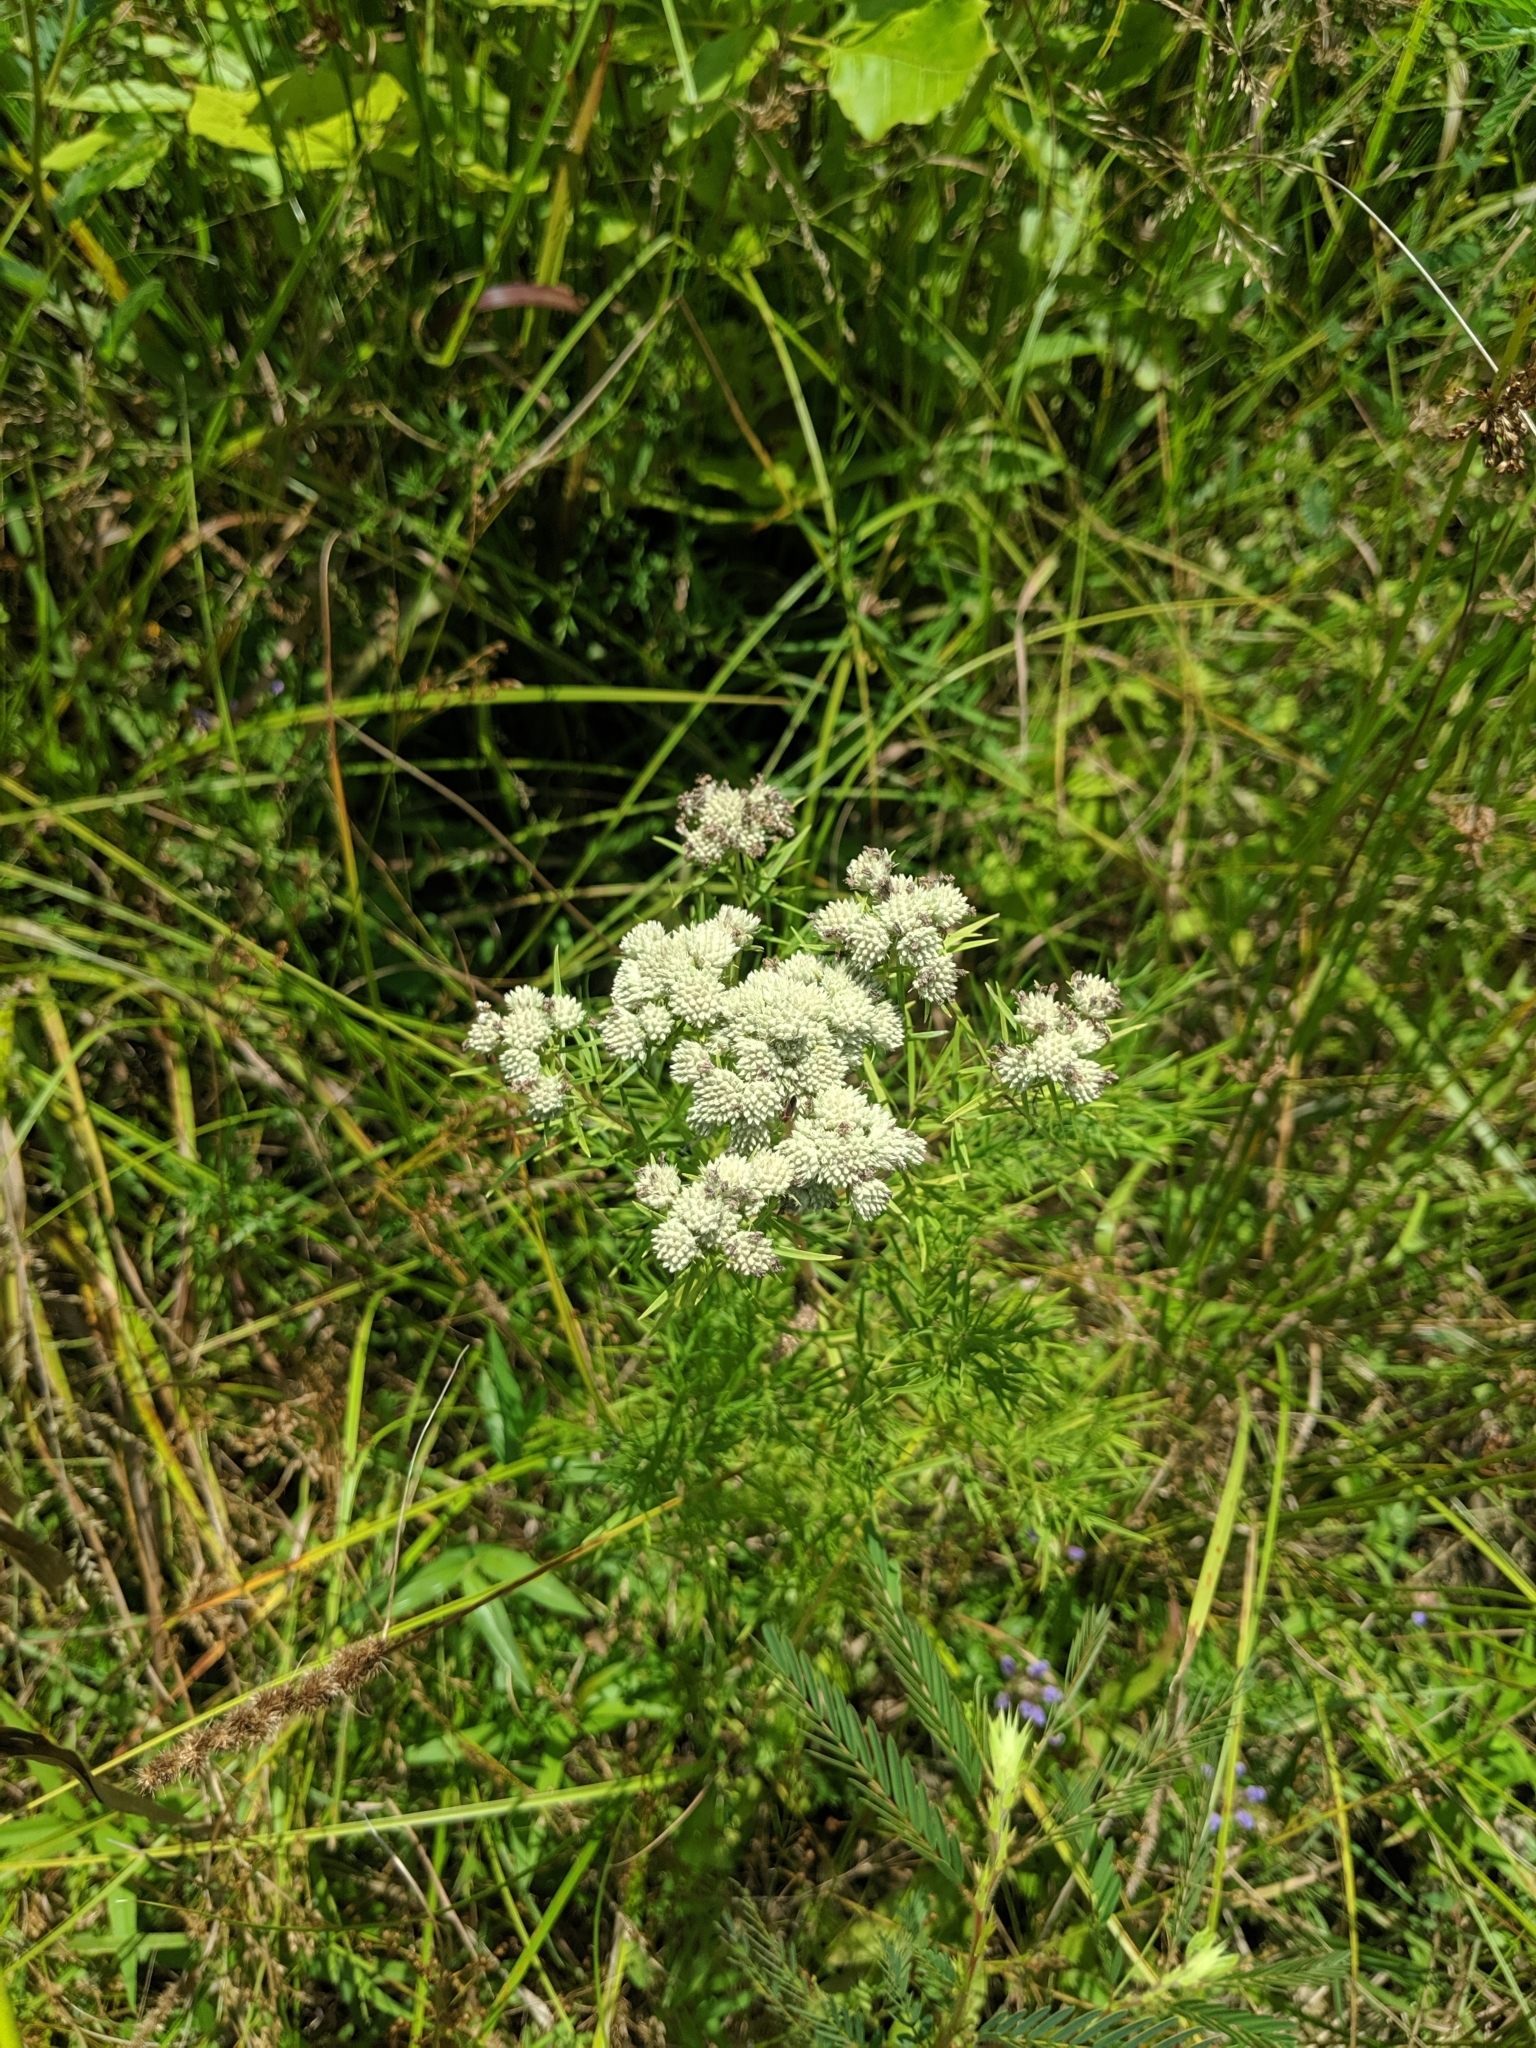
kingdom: Plantae
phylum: Tracheophyta
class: Magnoliopsida
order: Lamiales
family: Lamiaceae
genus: Pycnanthemum
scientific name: Pycnanthemum tenuifolium
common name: Narrow-leaf mountain-mint
